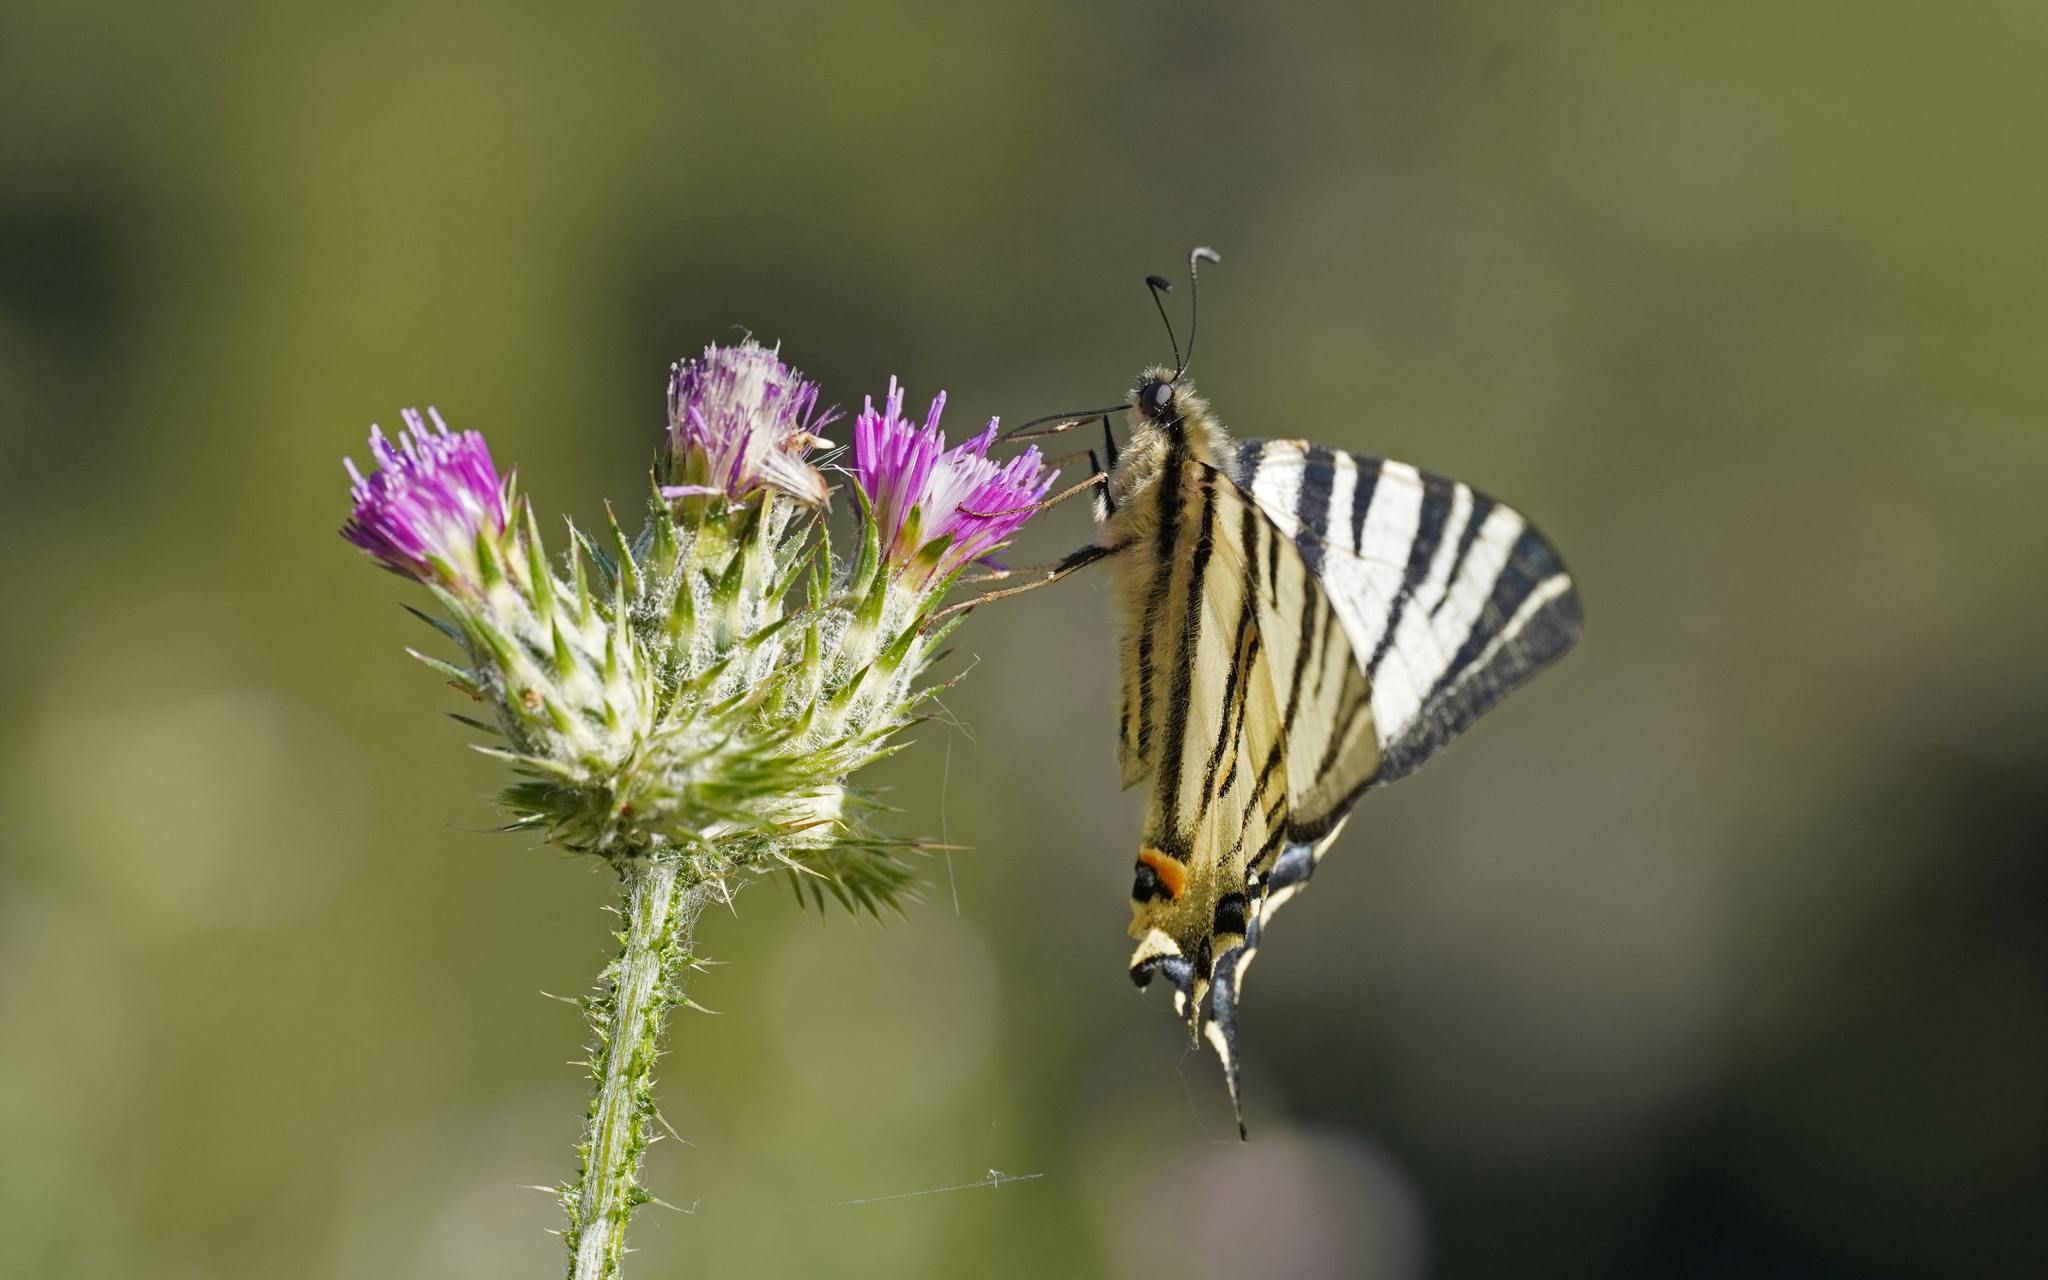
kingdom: Animalia
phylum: Arthropoda
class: Insecta
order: Lepidoptera
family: Papilionidae
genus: Iphiclides
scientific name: Iphiclides podalirius
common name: Scarce swallowtail
